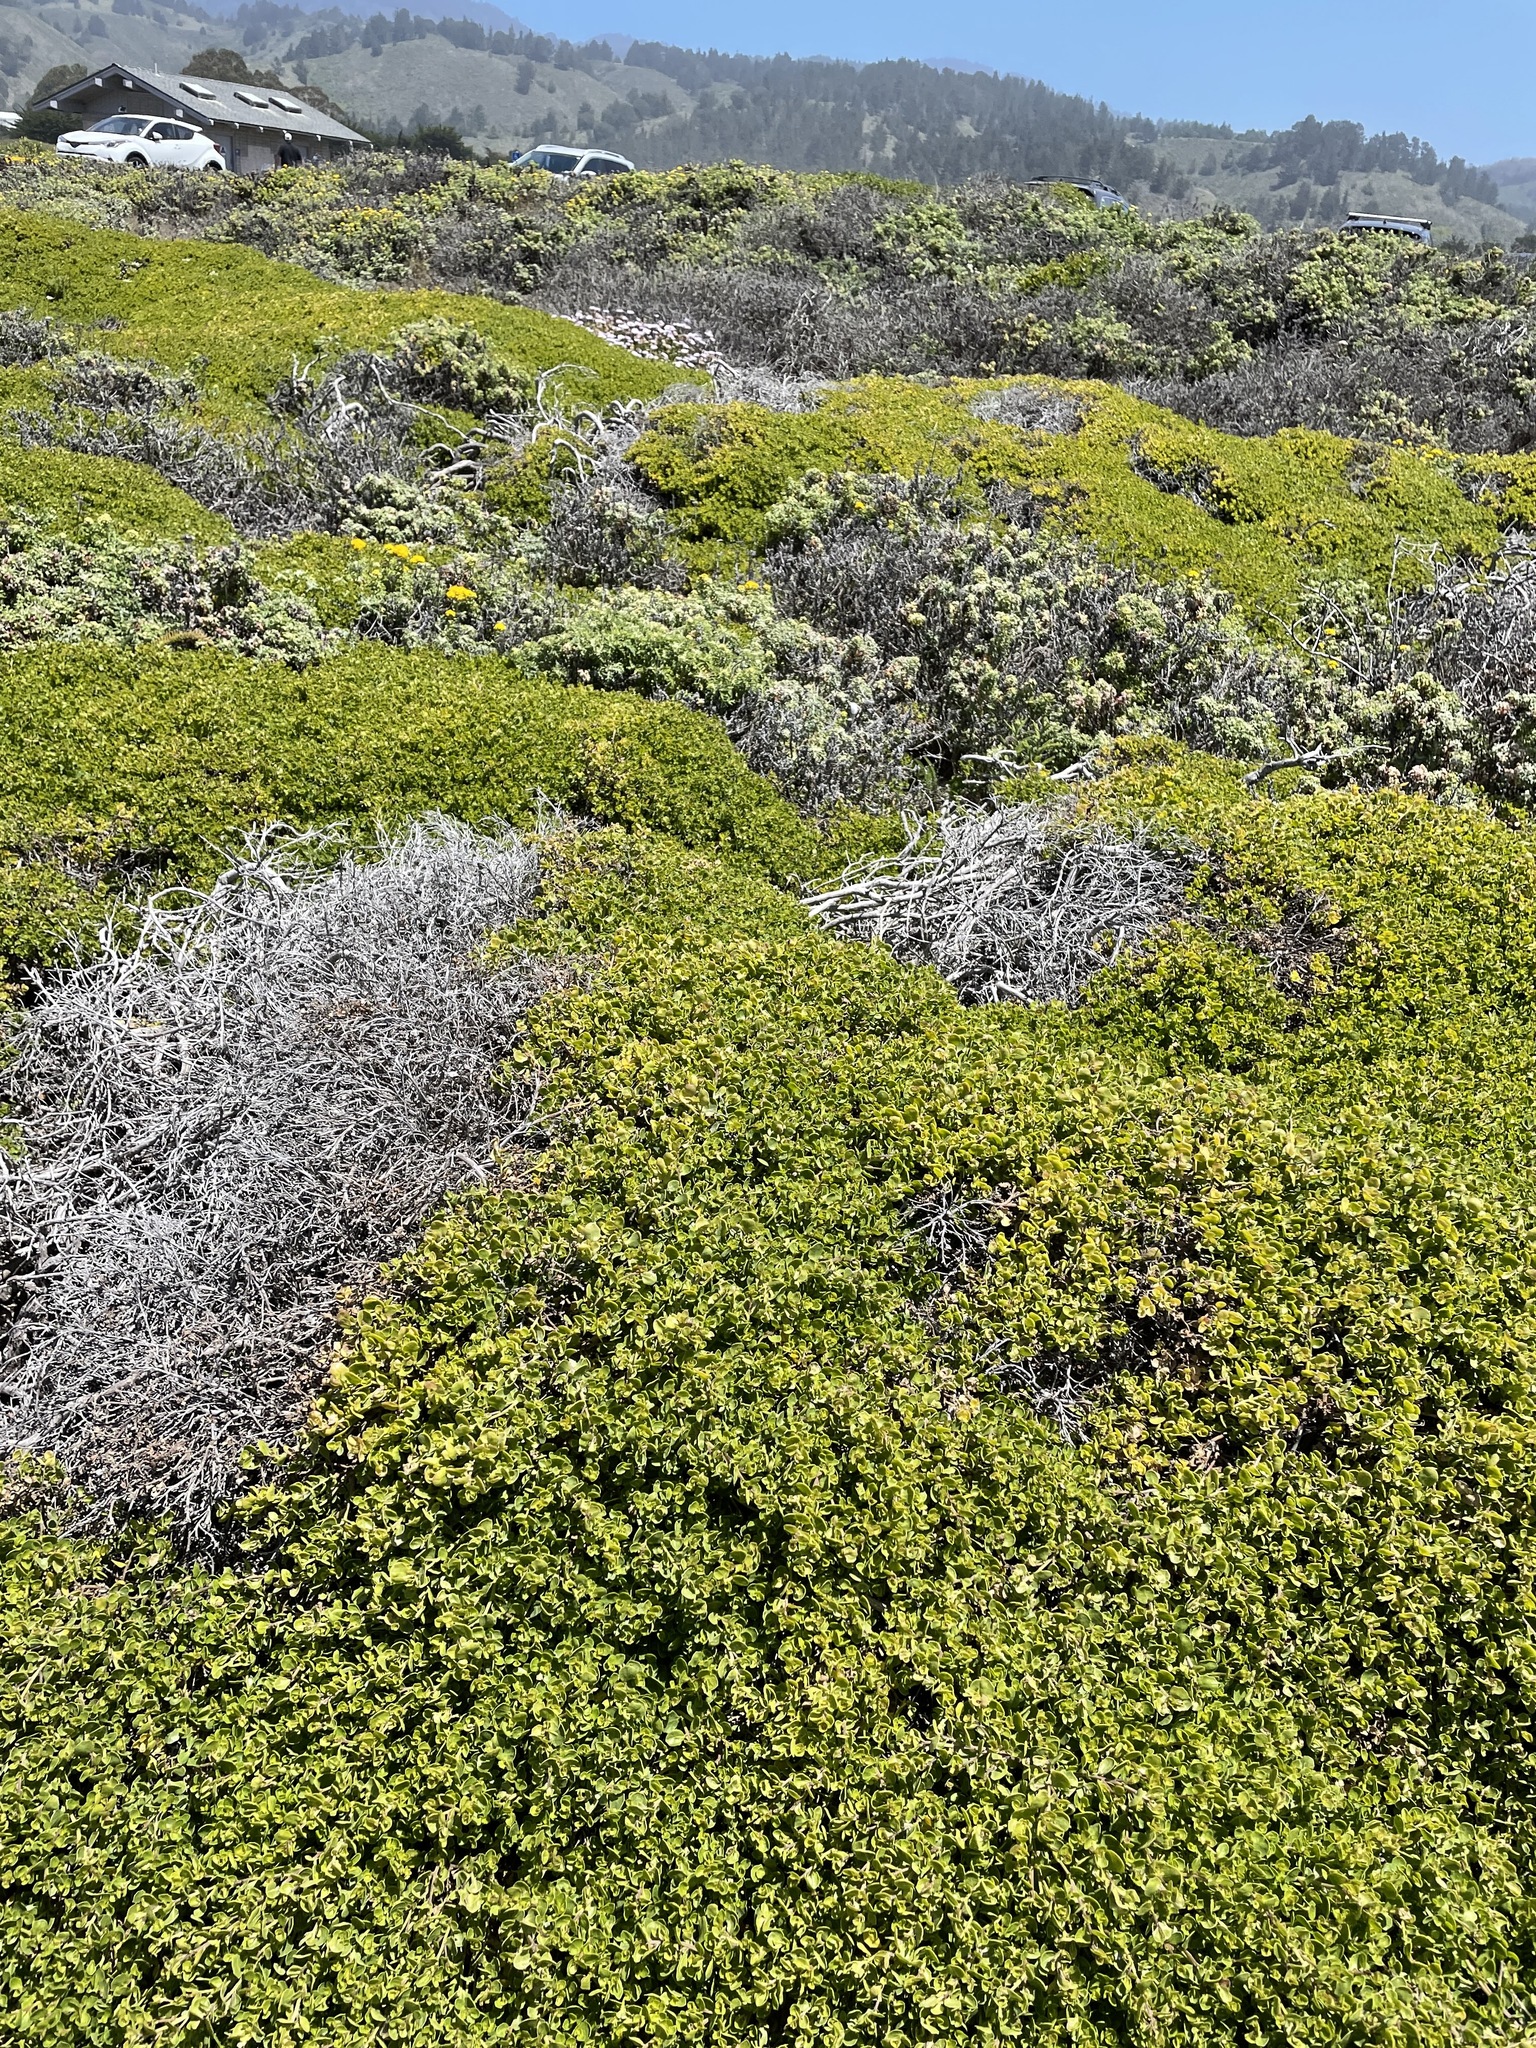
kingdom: Plantae
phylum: Tracheophyta
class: Magnoliopsida
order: Asterales
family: Asteraceae
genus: Baccharis
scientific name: Baccharis pilularis
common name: Coyotebrush
